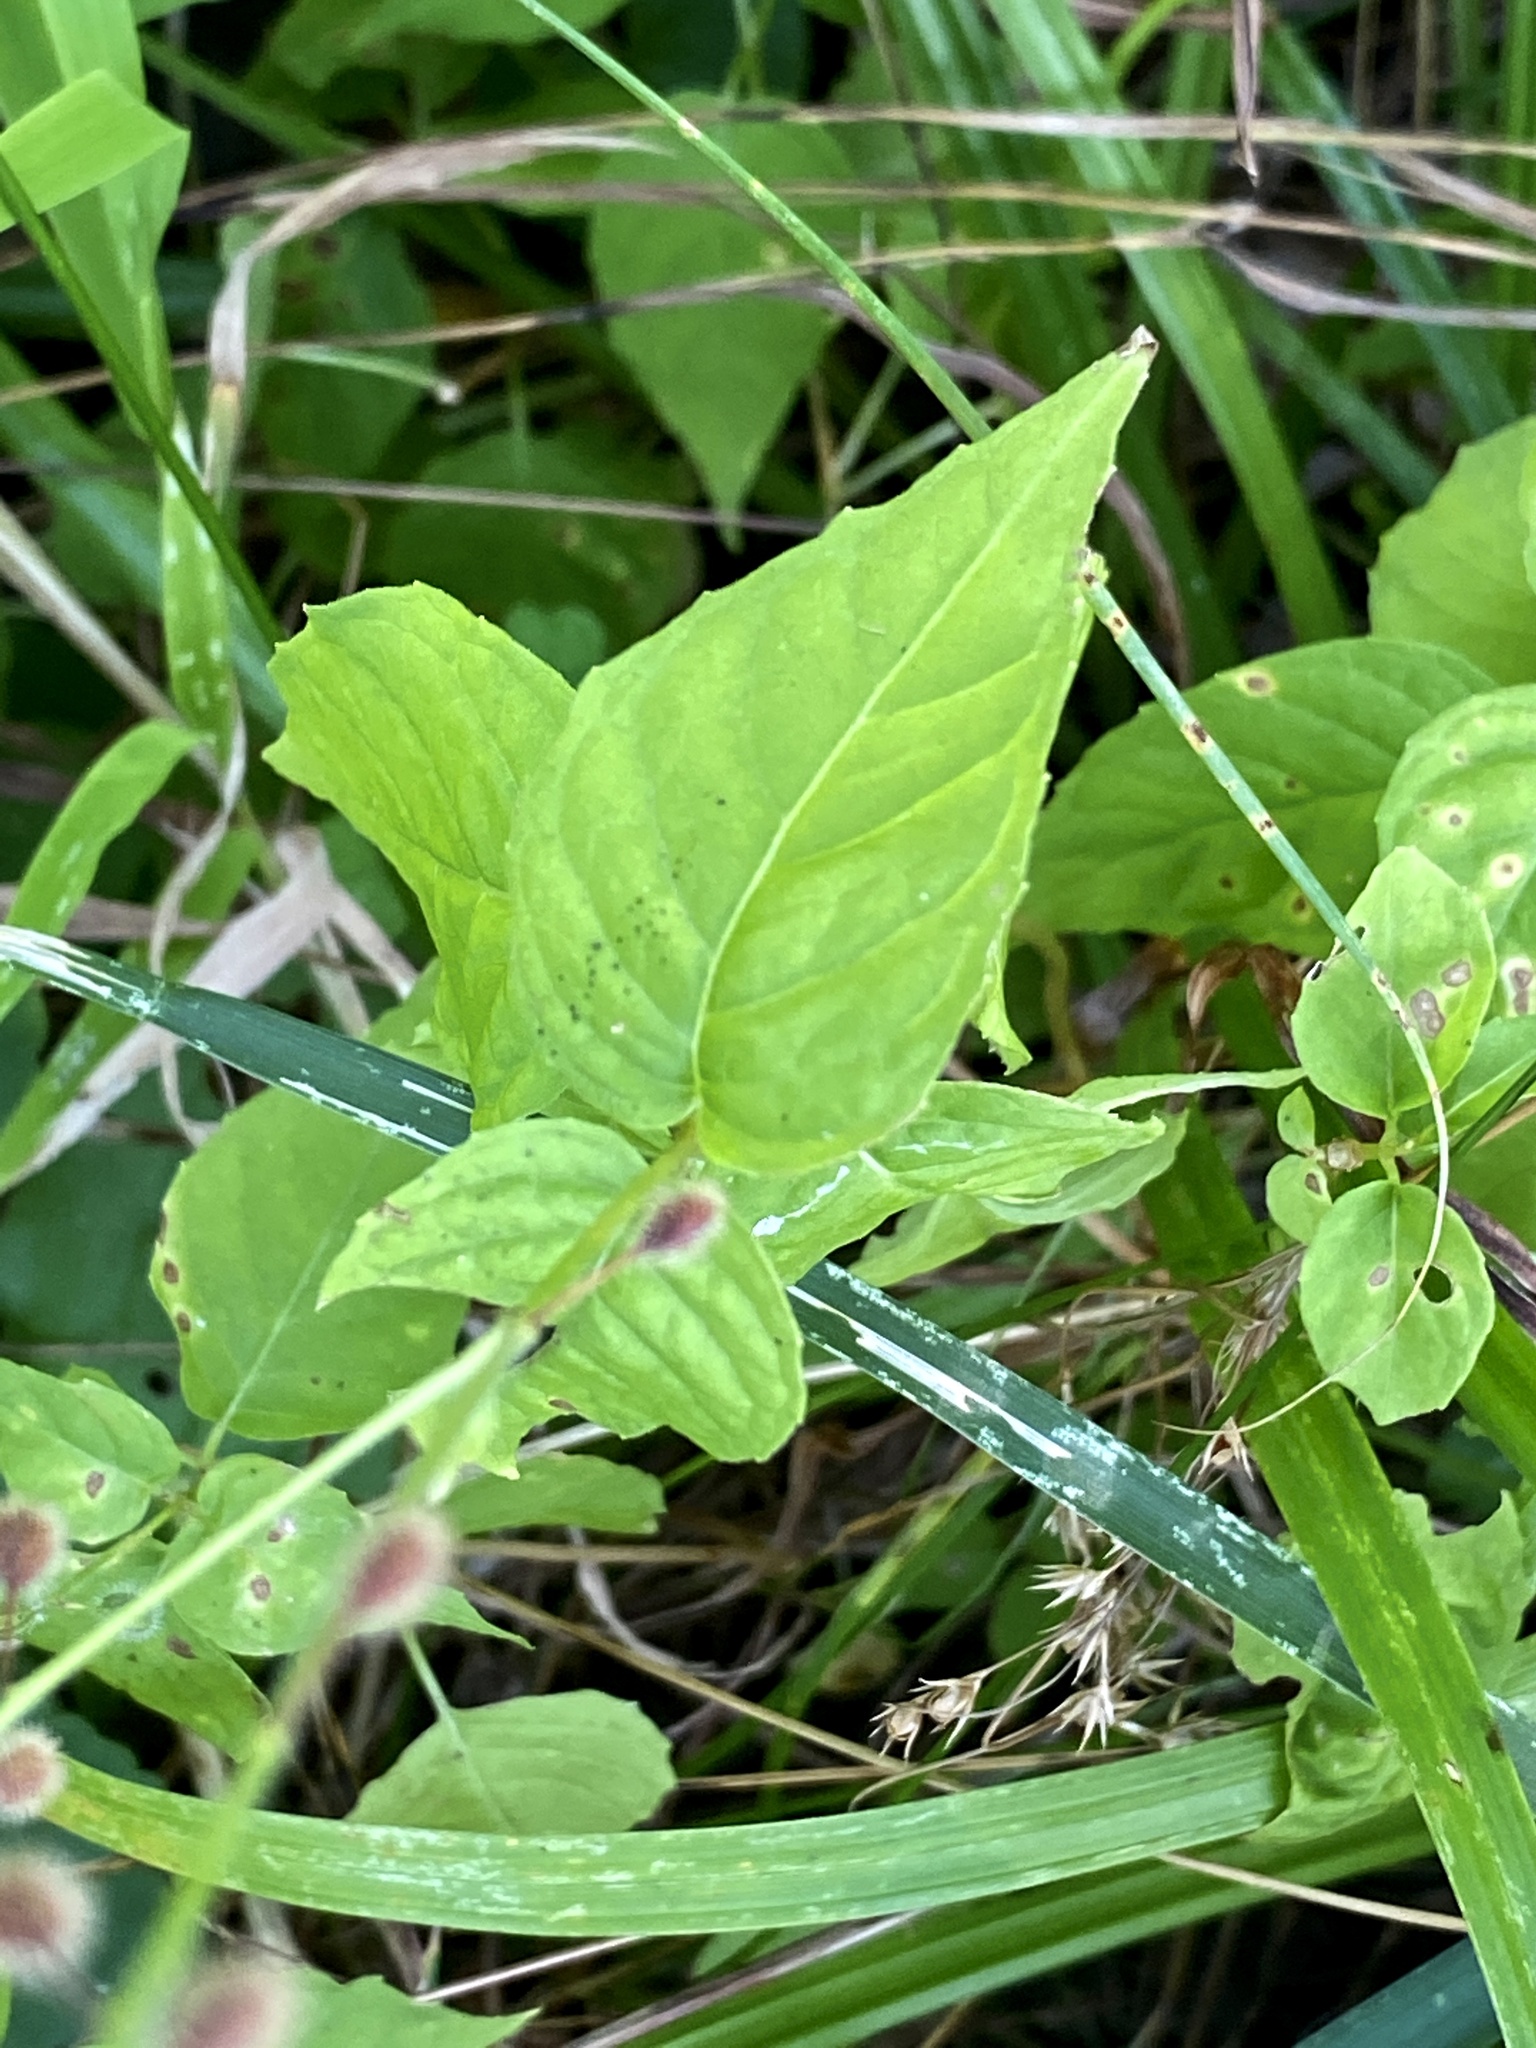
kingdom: Plantae
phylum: Tracheophyta
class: Magnoliopsida
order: Myrtales
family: Onagraceae
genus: Circaea
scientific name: Circaea canadensis
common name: Broad-leaved enchanter's nightshade
